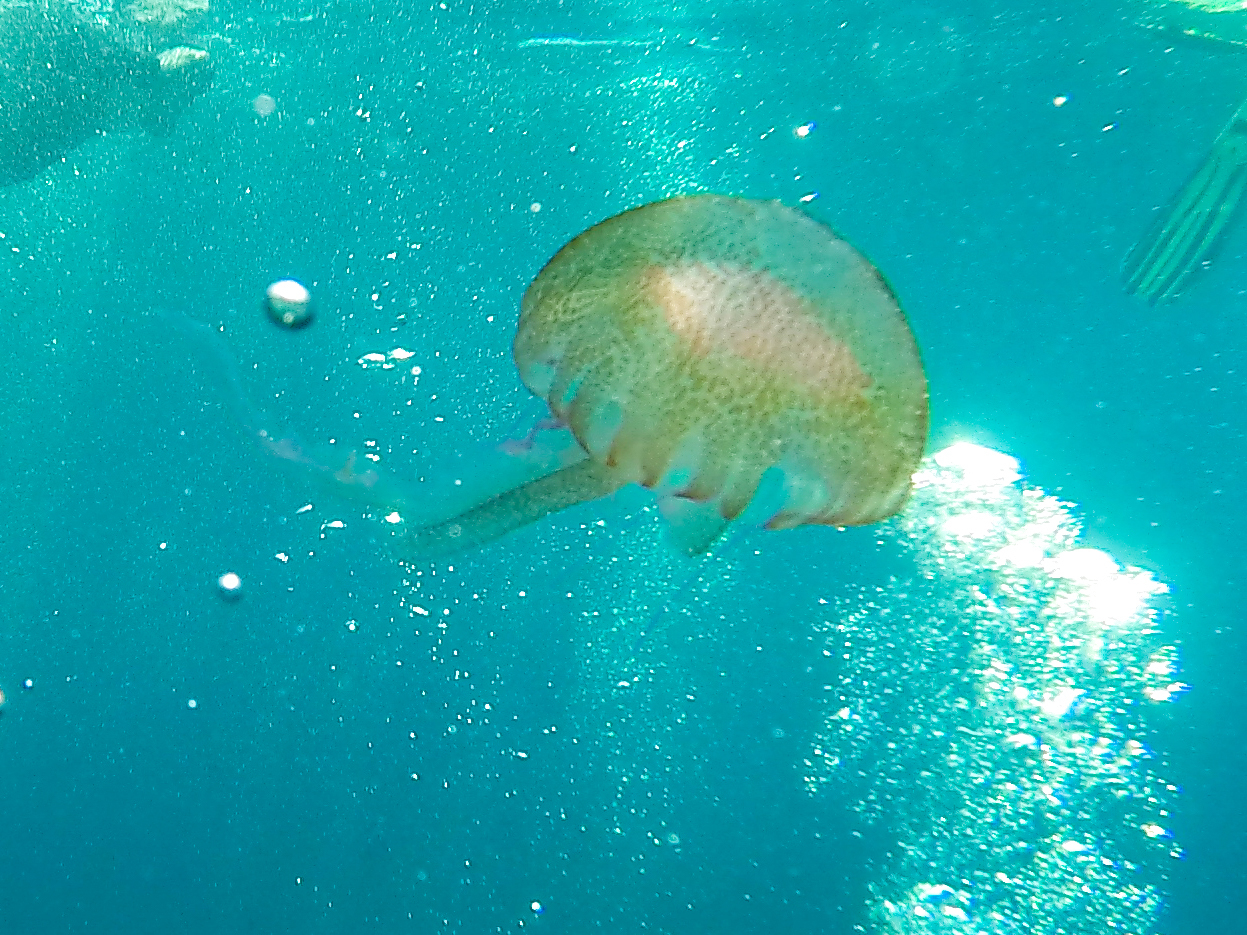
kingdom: Animalia
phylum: Cnidaria
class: Scyphozoa
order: Semaeostomeae
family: Pelagiidae
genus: Pelagia
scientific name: Pelagia noctiluca
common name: Mauve stinger
